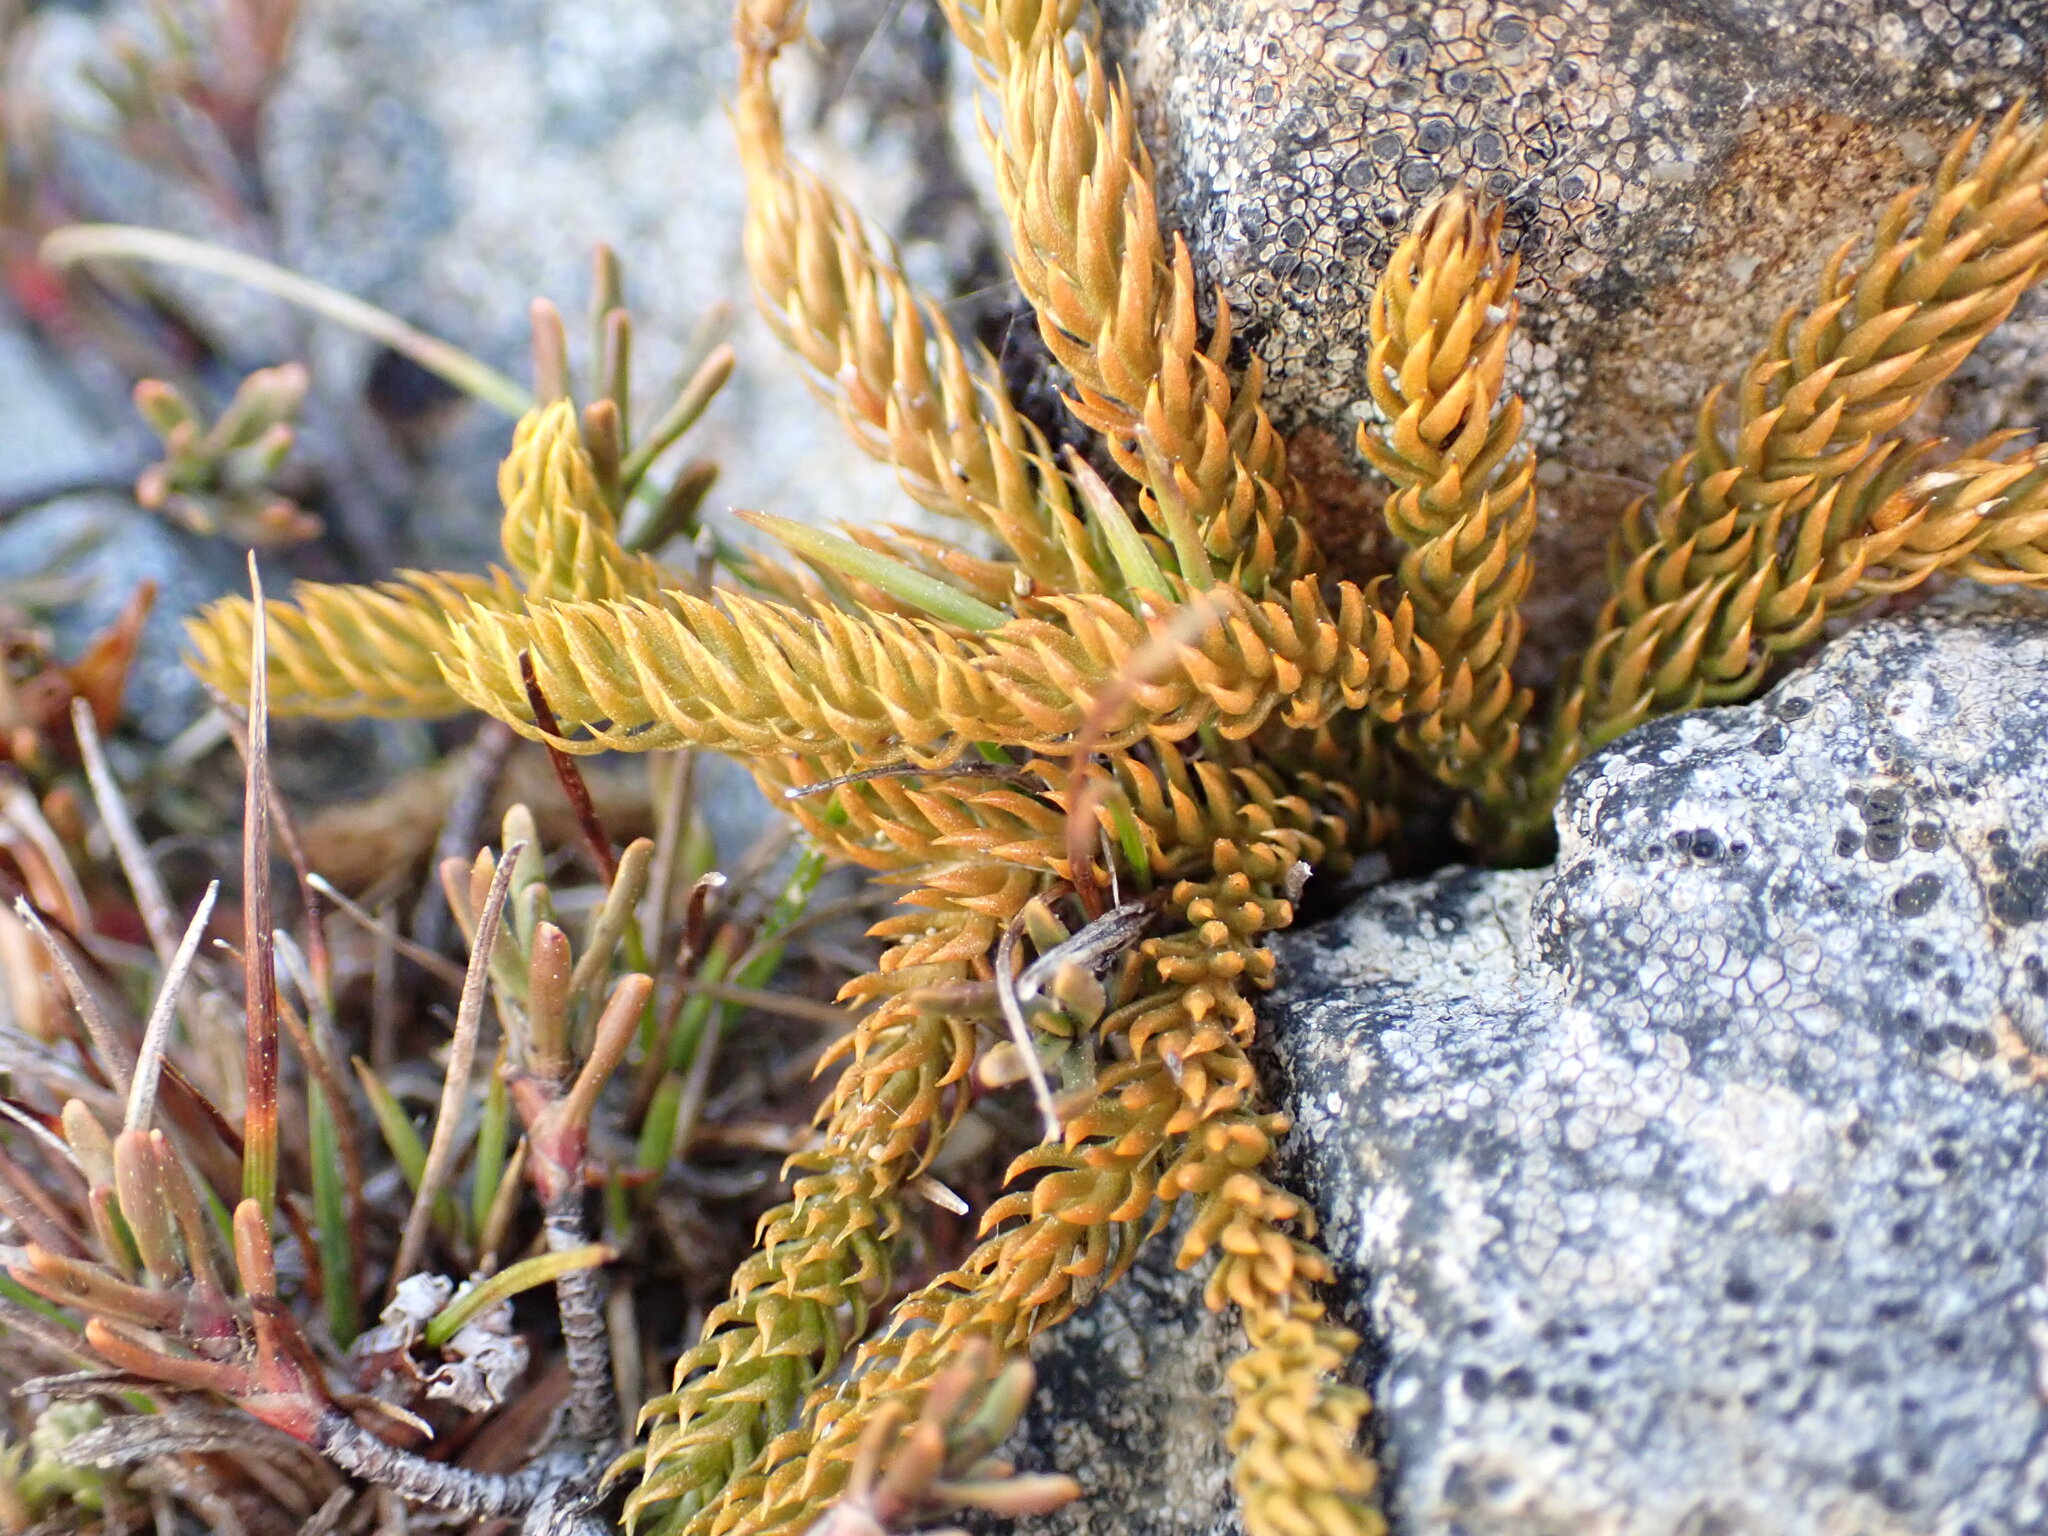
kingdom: Plantae
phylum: Tracheophyta
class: Lycopodiopsida
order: Lycopodiales
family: Lycopodiaceae
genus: Austrolycopodium
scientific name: Austrolycopodium fastigiatum
